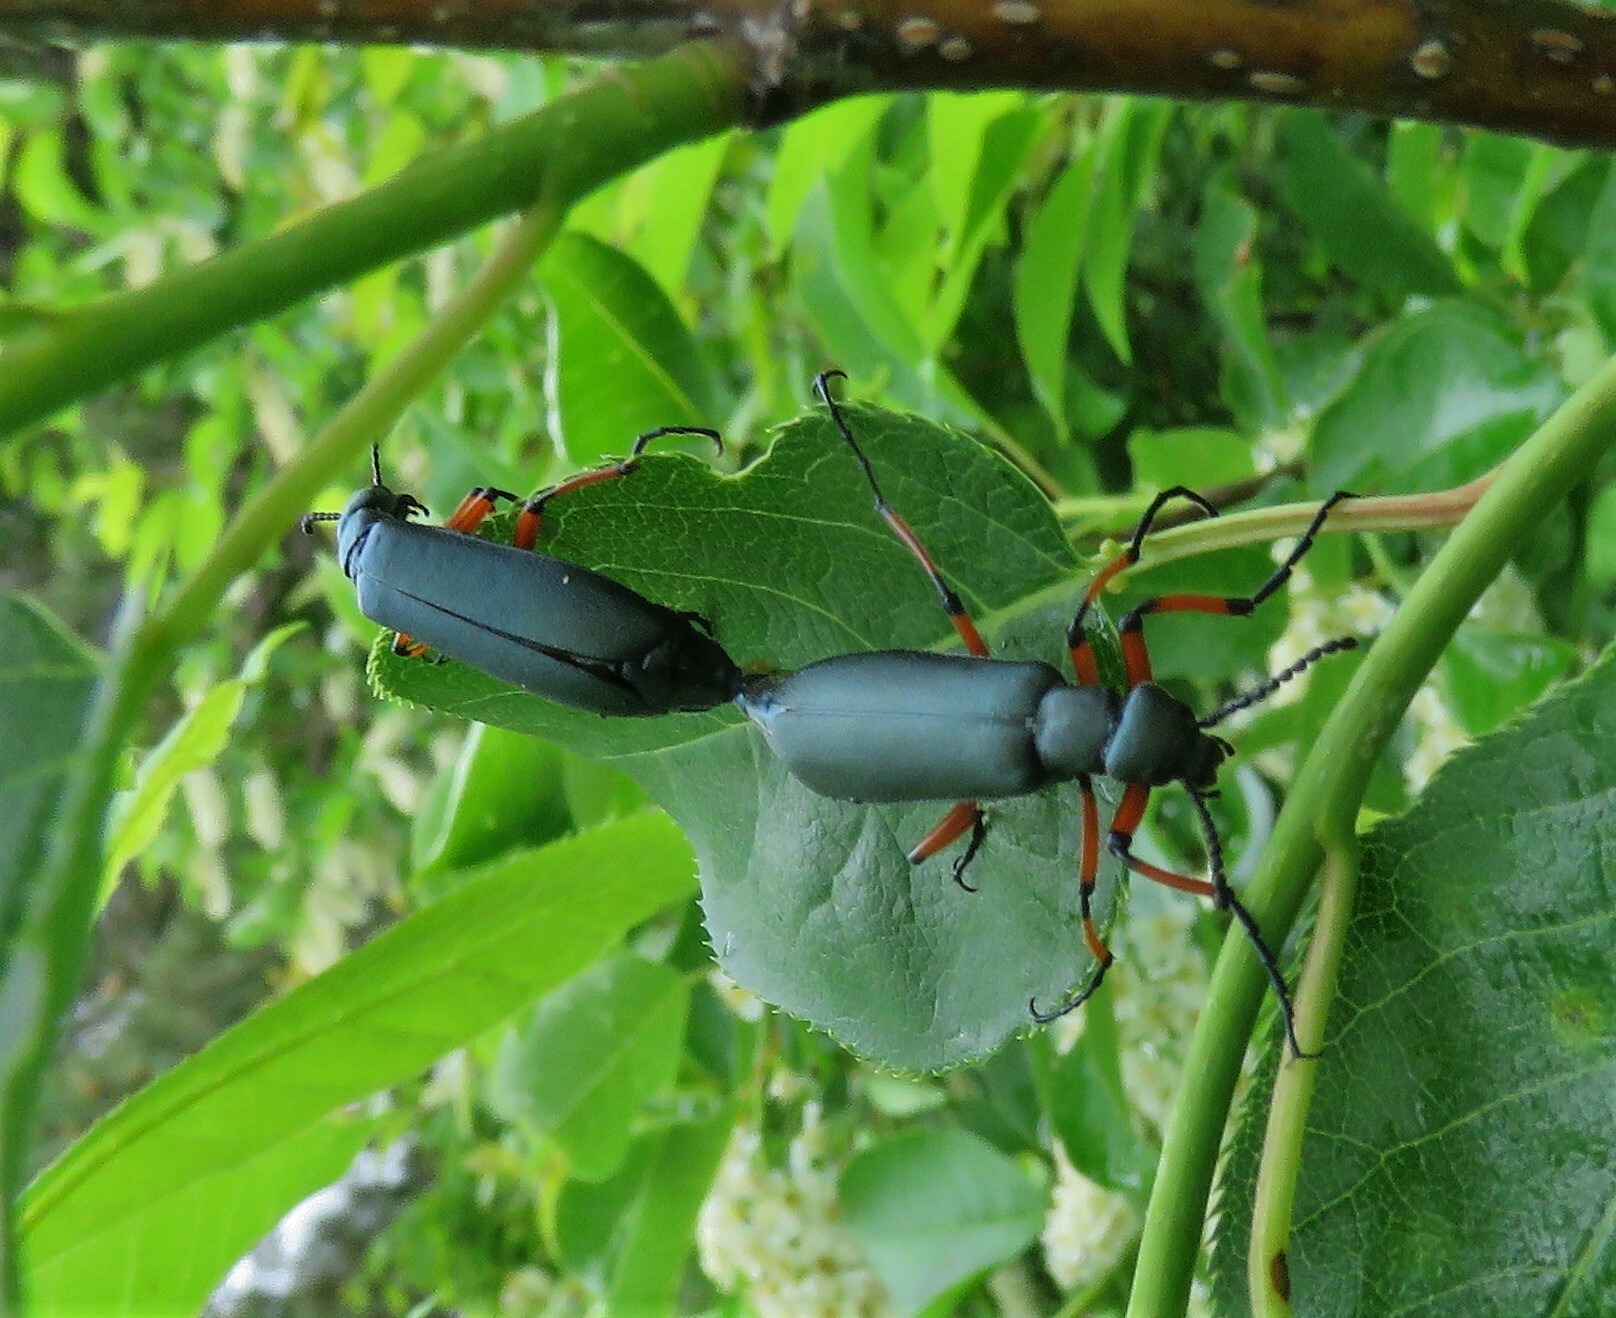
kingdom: Animalia
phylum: Arthropoda
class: Insecta
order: Coleoptera
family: Meloidae
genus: Lytta
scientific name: Lytta sayi
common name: Say's blister beetle
